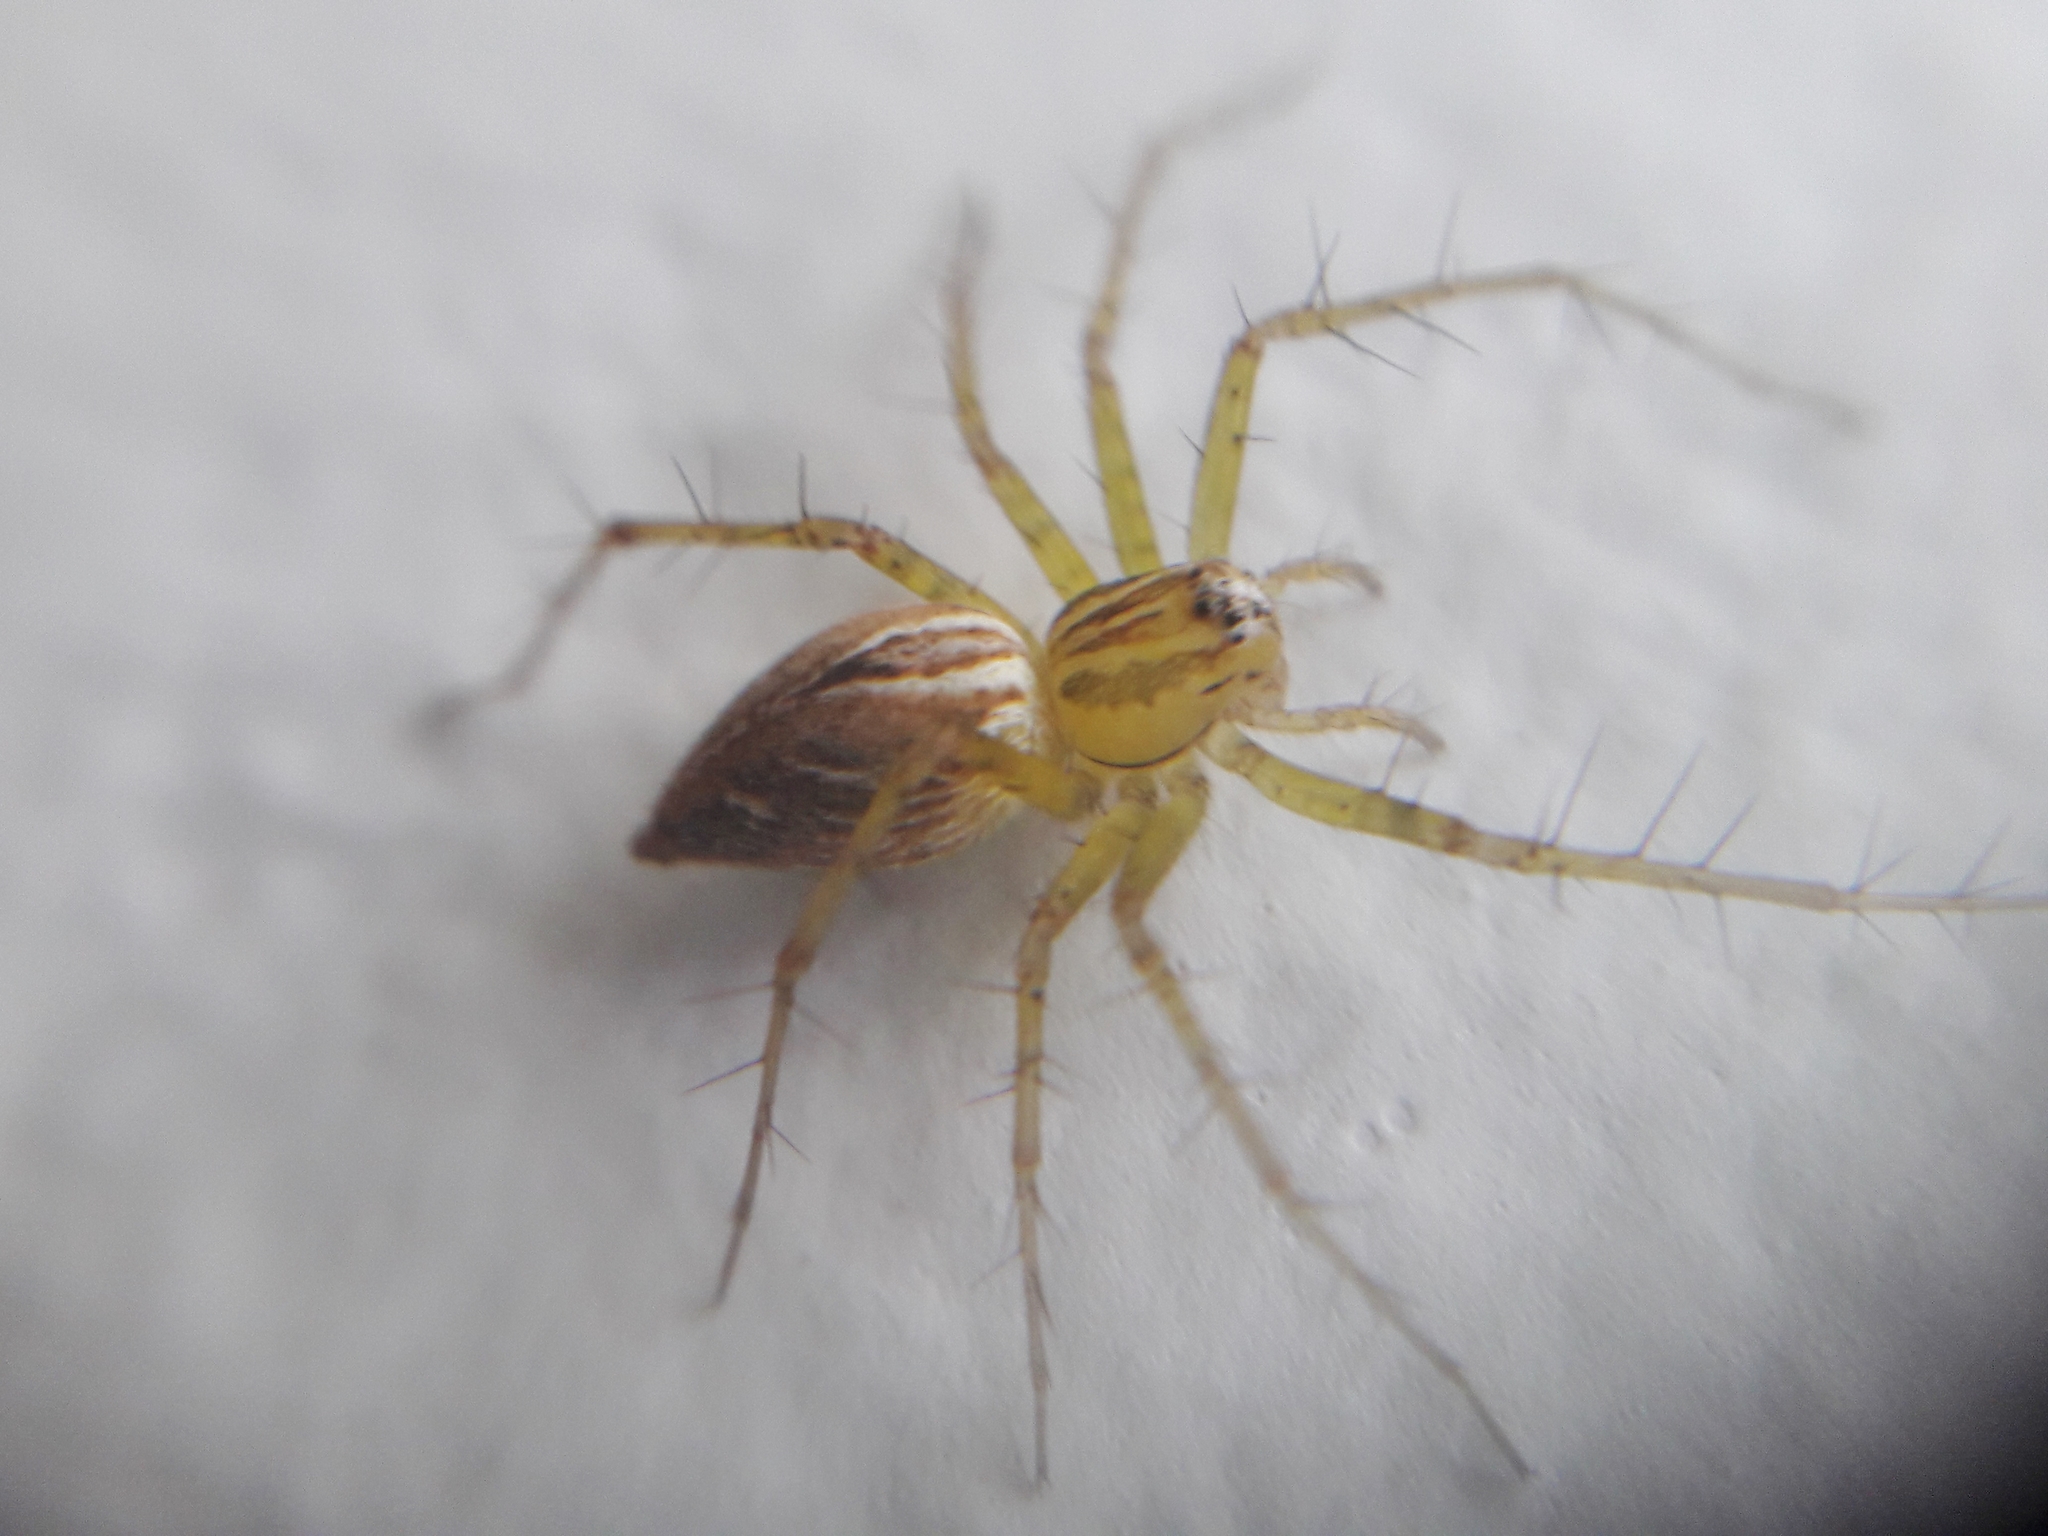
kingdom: Animalia
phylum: Arthropoda
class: Arachnida
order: Araneae
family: Oxyopidae
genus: Oxyopes
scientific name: Oxyopes salticus
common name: Lynx spiders
